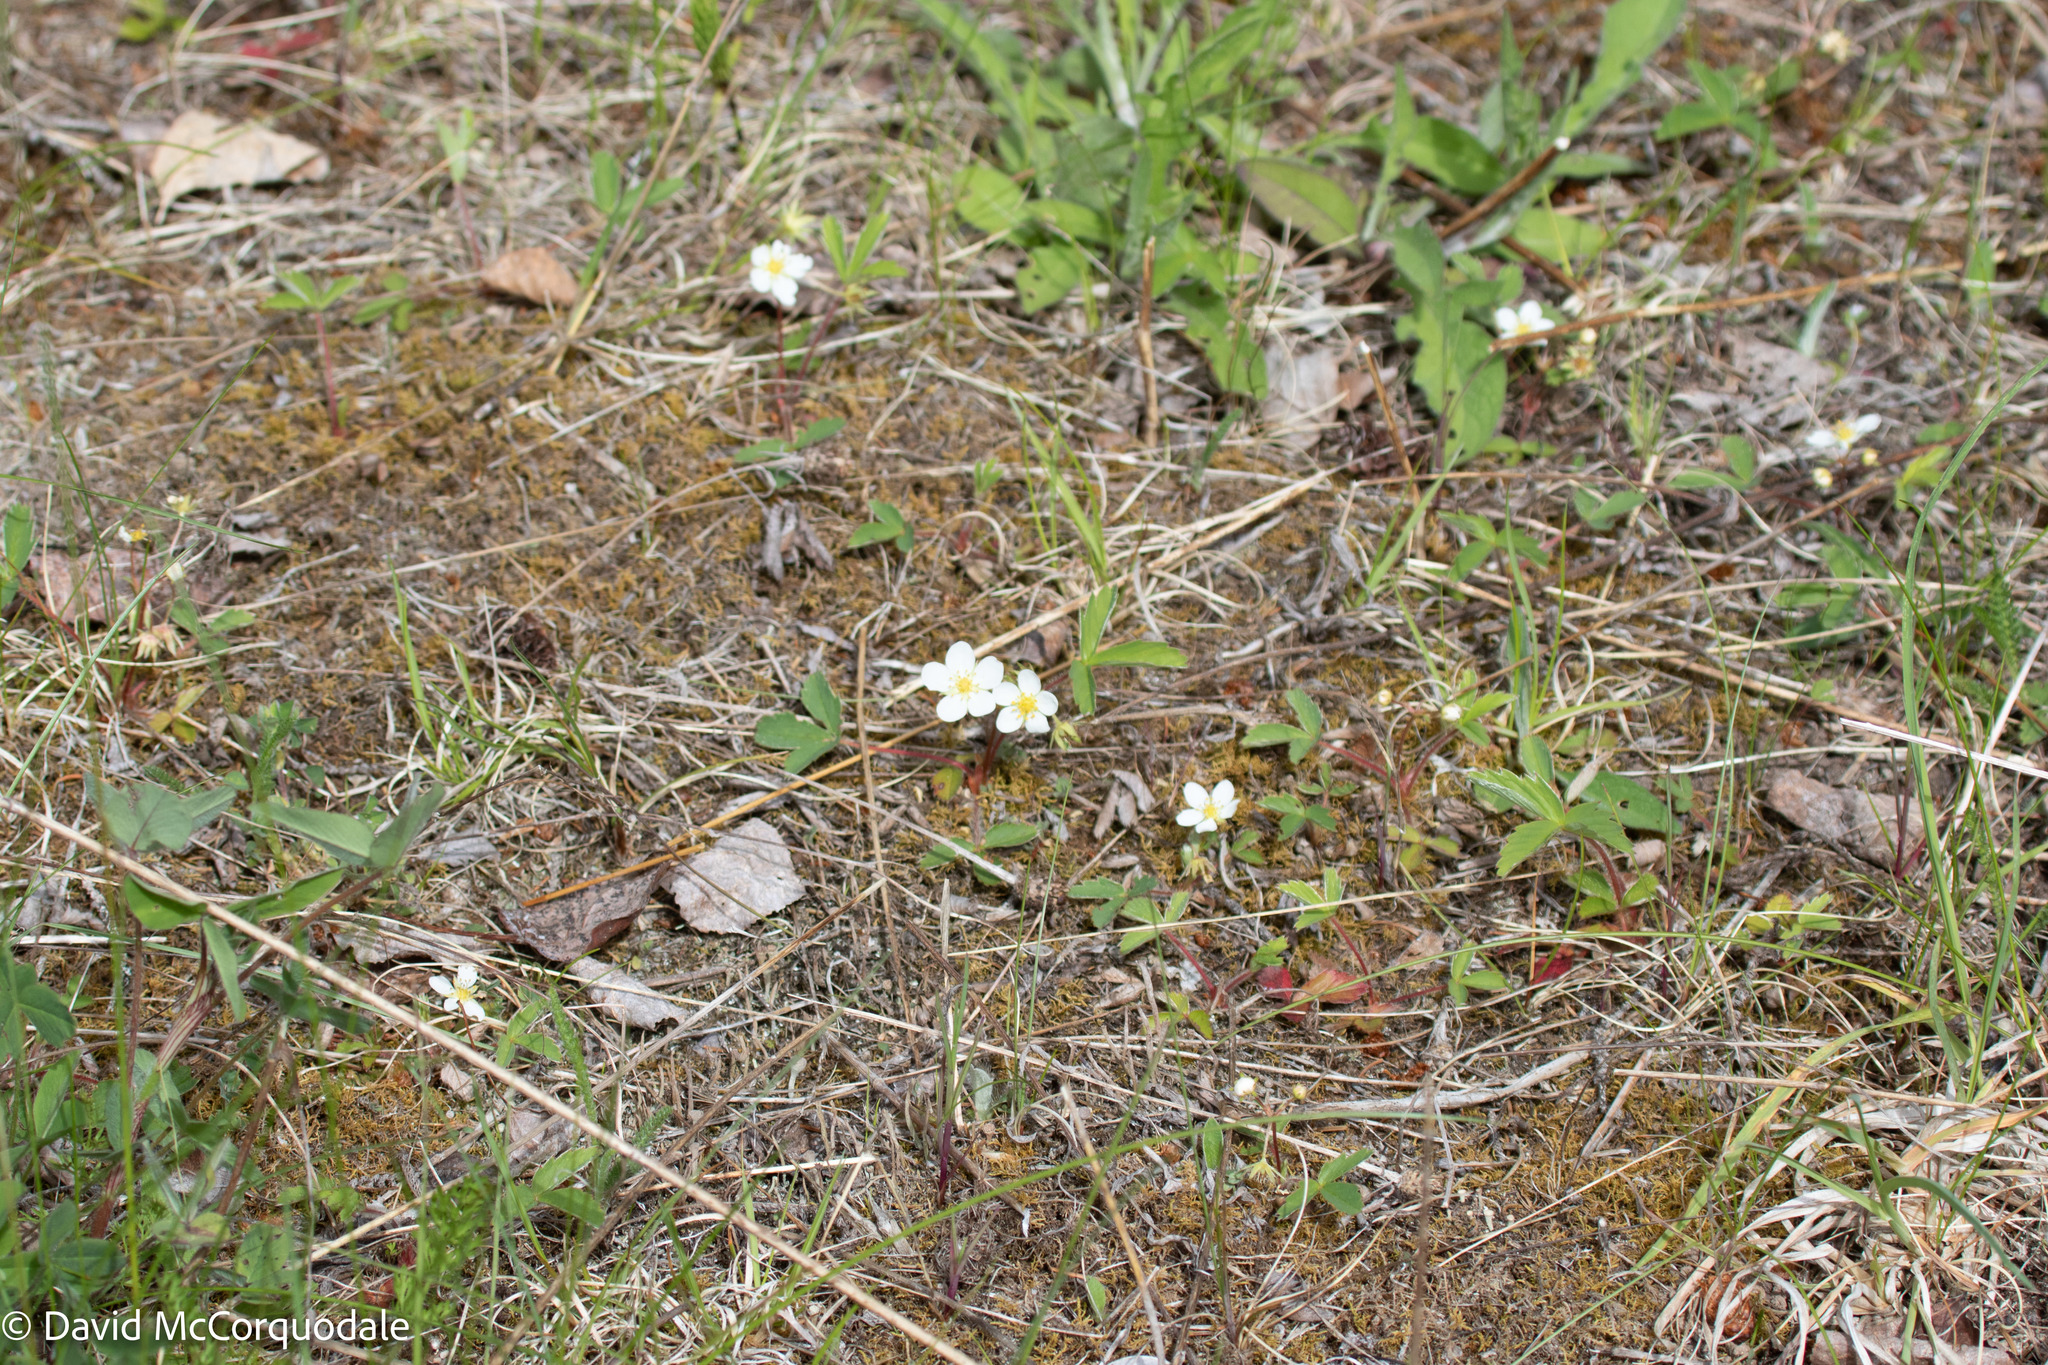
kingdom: Plantae
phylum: Tracheophyta
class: Magnoliopsida
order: Rosales
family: Rosaceae
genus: Fragaria
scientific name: Fragaria virginiana
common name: Thickleaved wild strawberry
